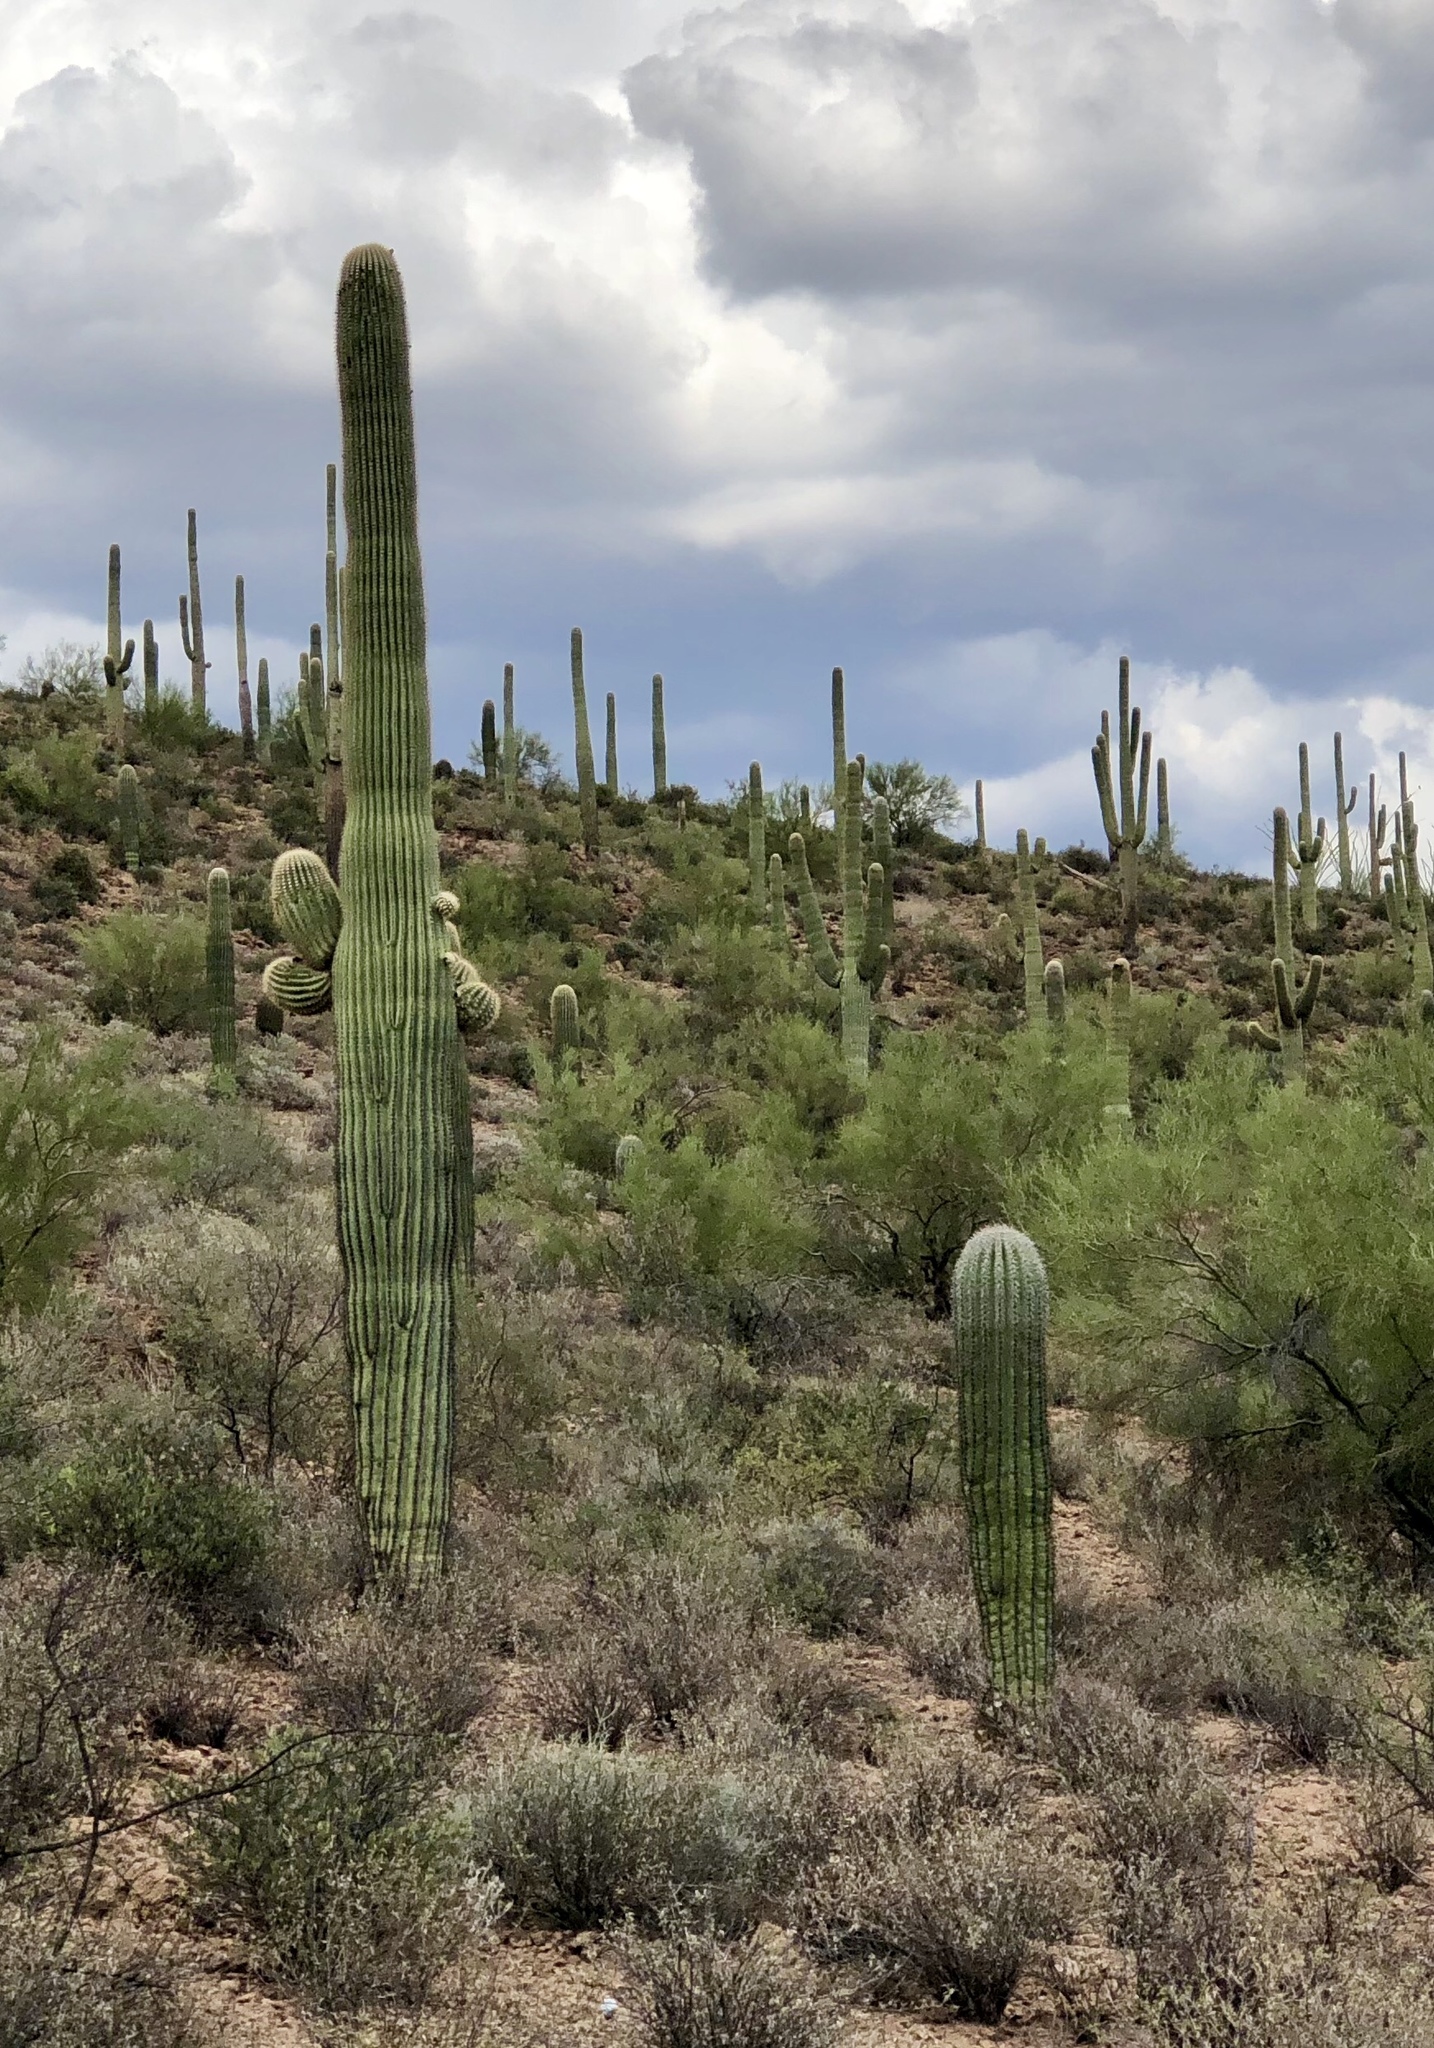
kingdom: Plantae
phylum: Tracheophyta
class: Magnoliopsida
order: Caryophyllales
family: Cactaceae
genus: Carnegiea
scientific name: Carnegiea gigantea
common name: Saguaro
